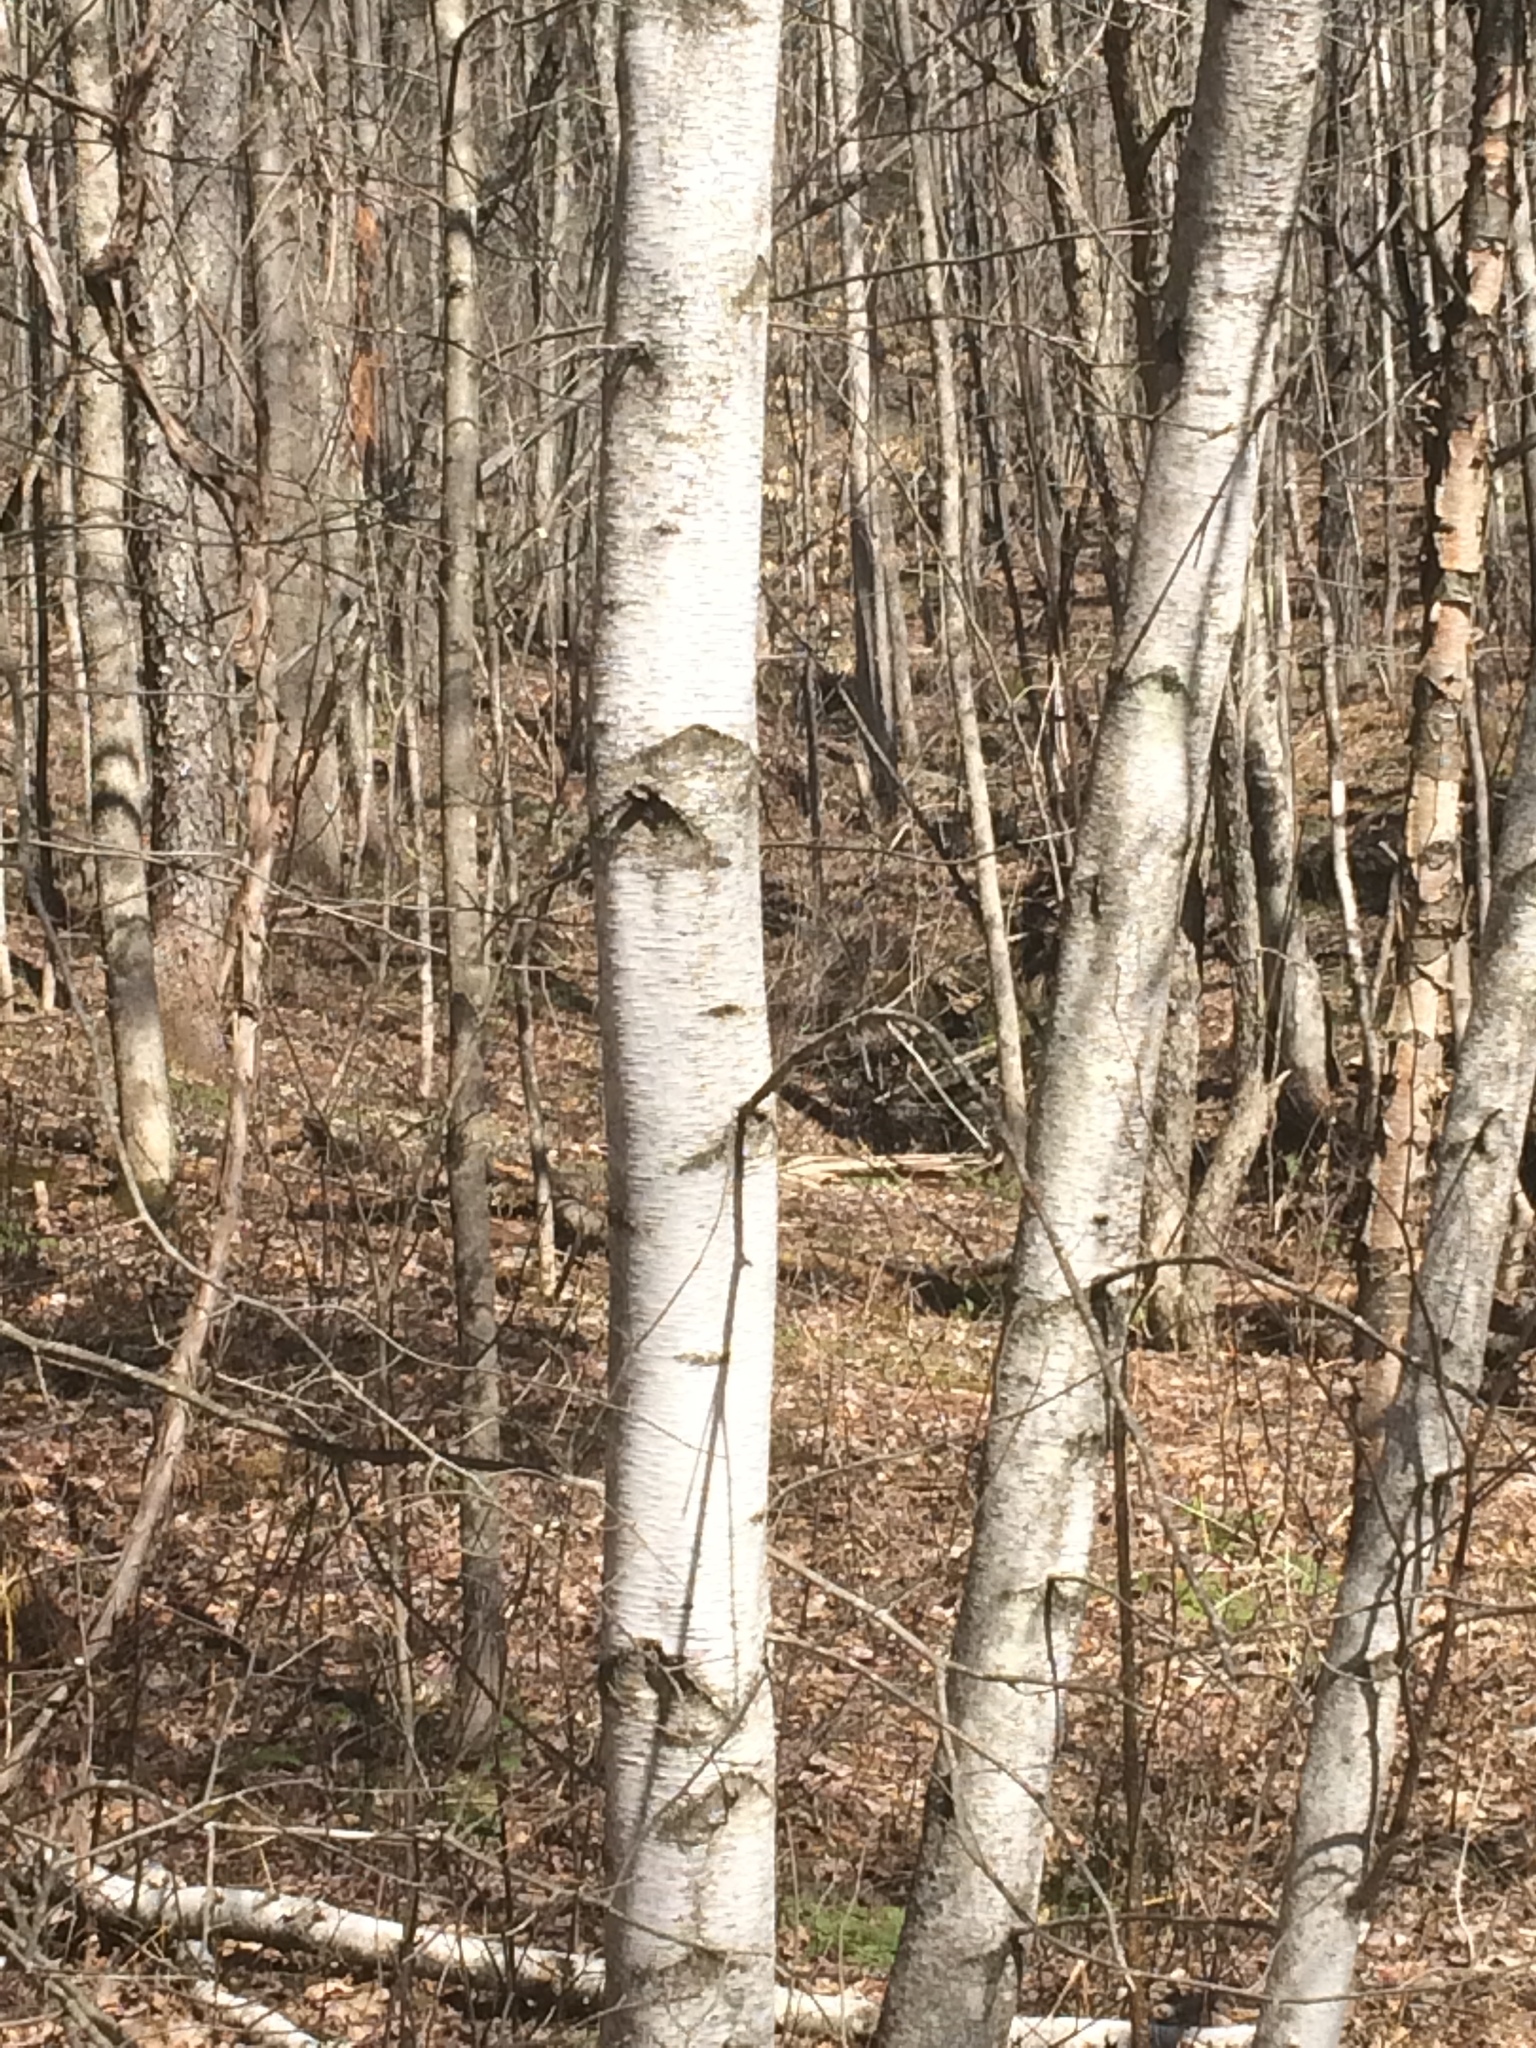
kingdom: Plantae
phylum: Tracheophyta
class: Magnoliopsida
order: Fagales
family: Betulaceae
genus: Betula
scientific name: Betula populifolia
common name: Fire birch
